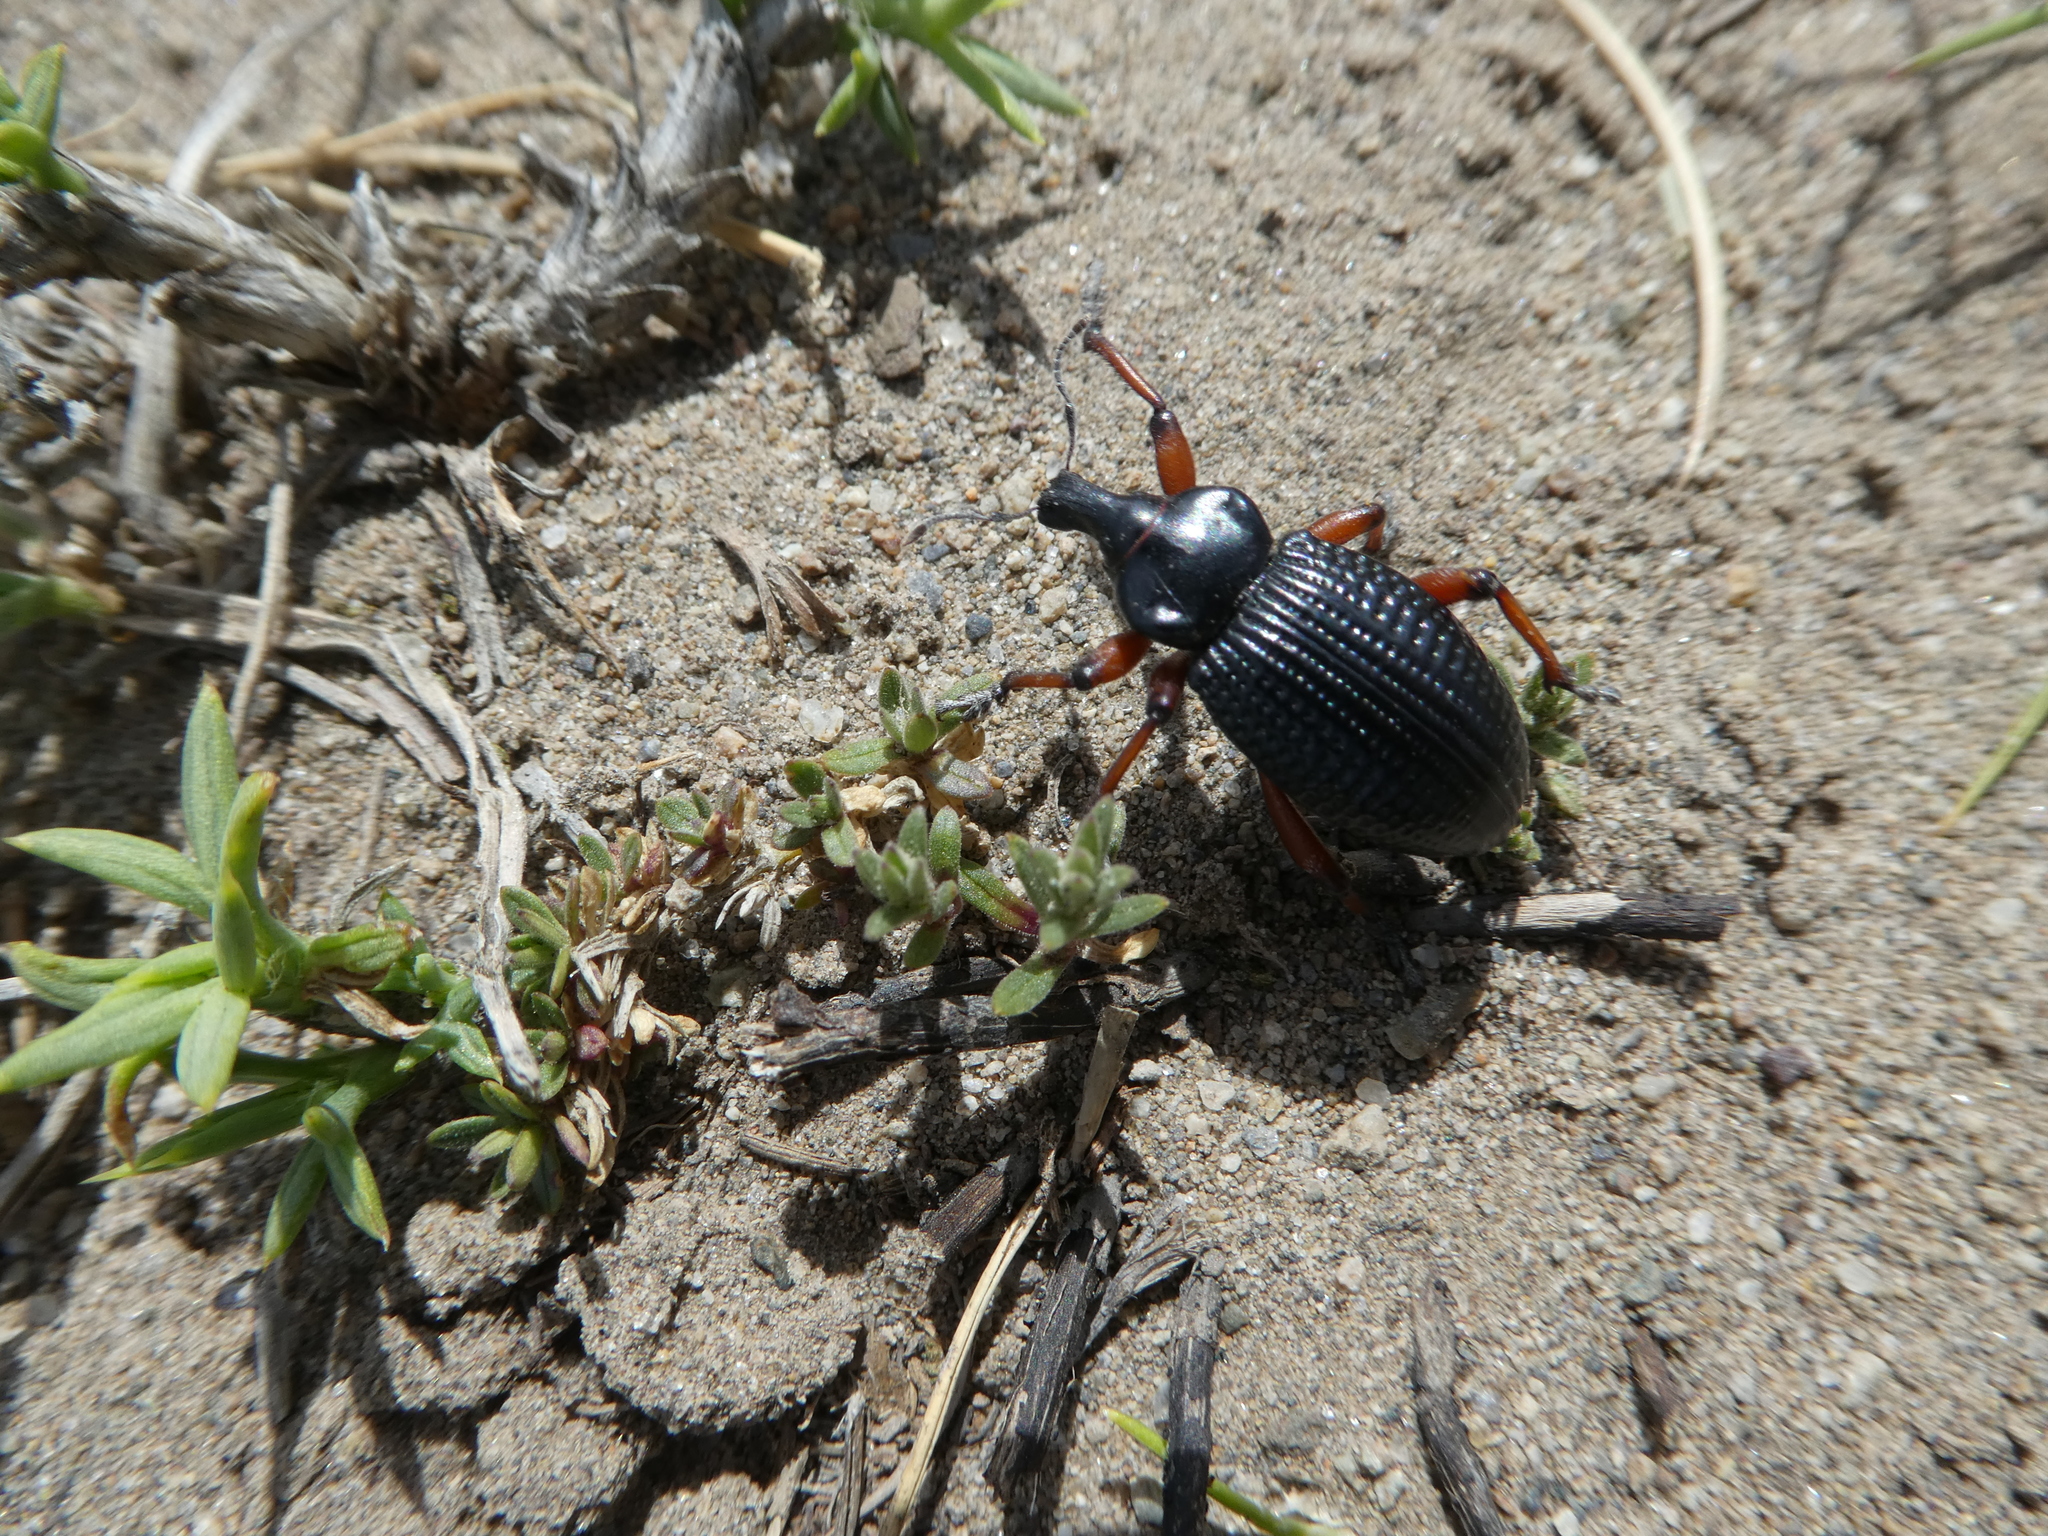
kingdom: Animalia
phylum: Arthropoda
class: Insecta
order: Coleoptera
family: Curculionidae
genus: Cylydrorhinus
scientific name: Cylydrorhinus angulatus
